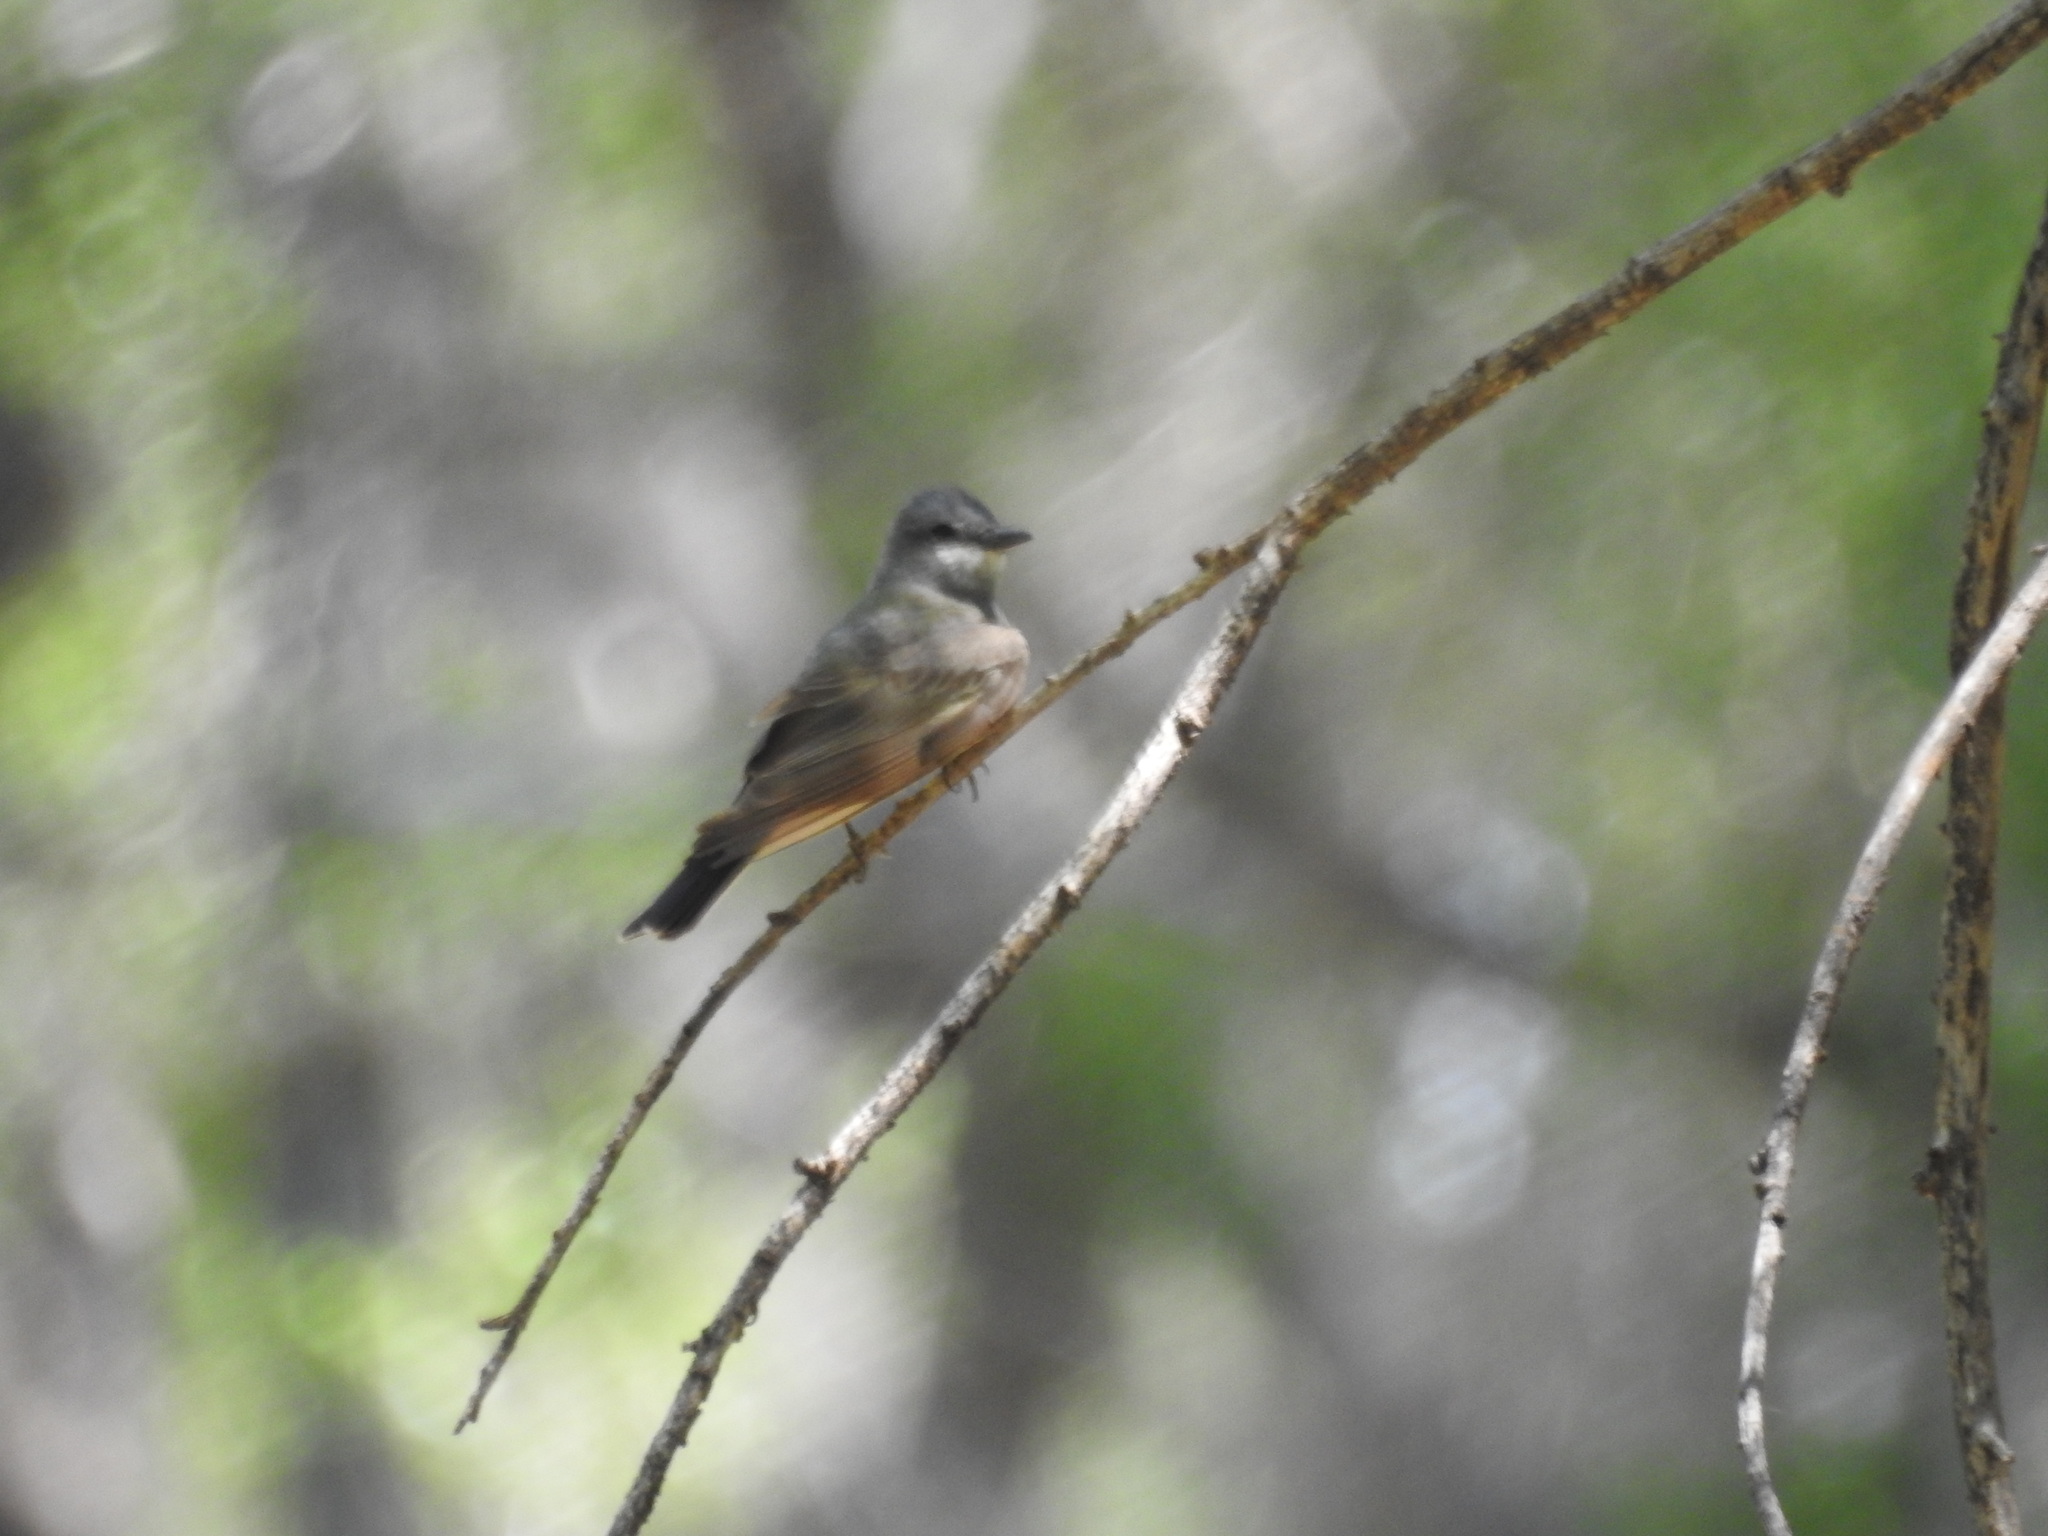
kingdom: Animalia
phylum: Chordata
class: Aves
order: Passeriformes
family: Tyrannidae
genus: Tyrannus
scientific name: Tyrannus vociferans
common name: Cassin's kingbird
